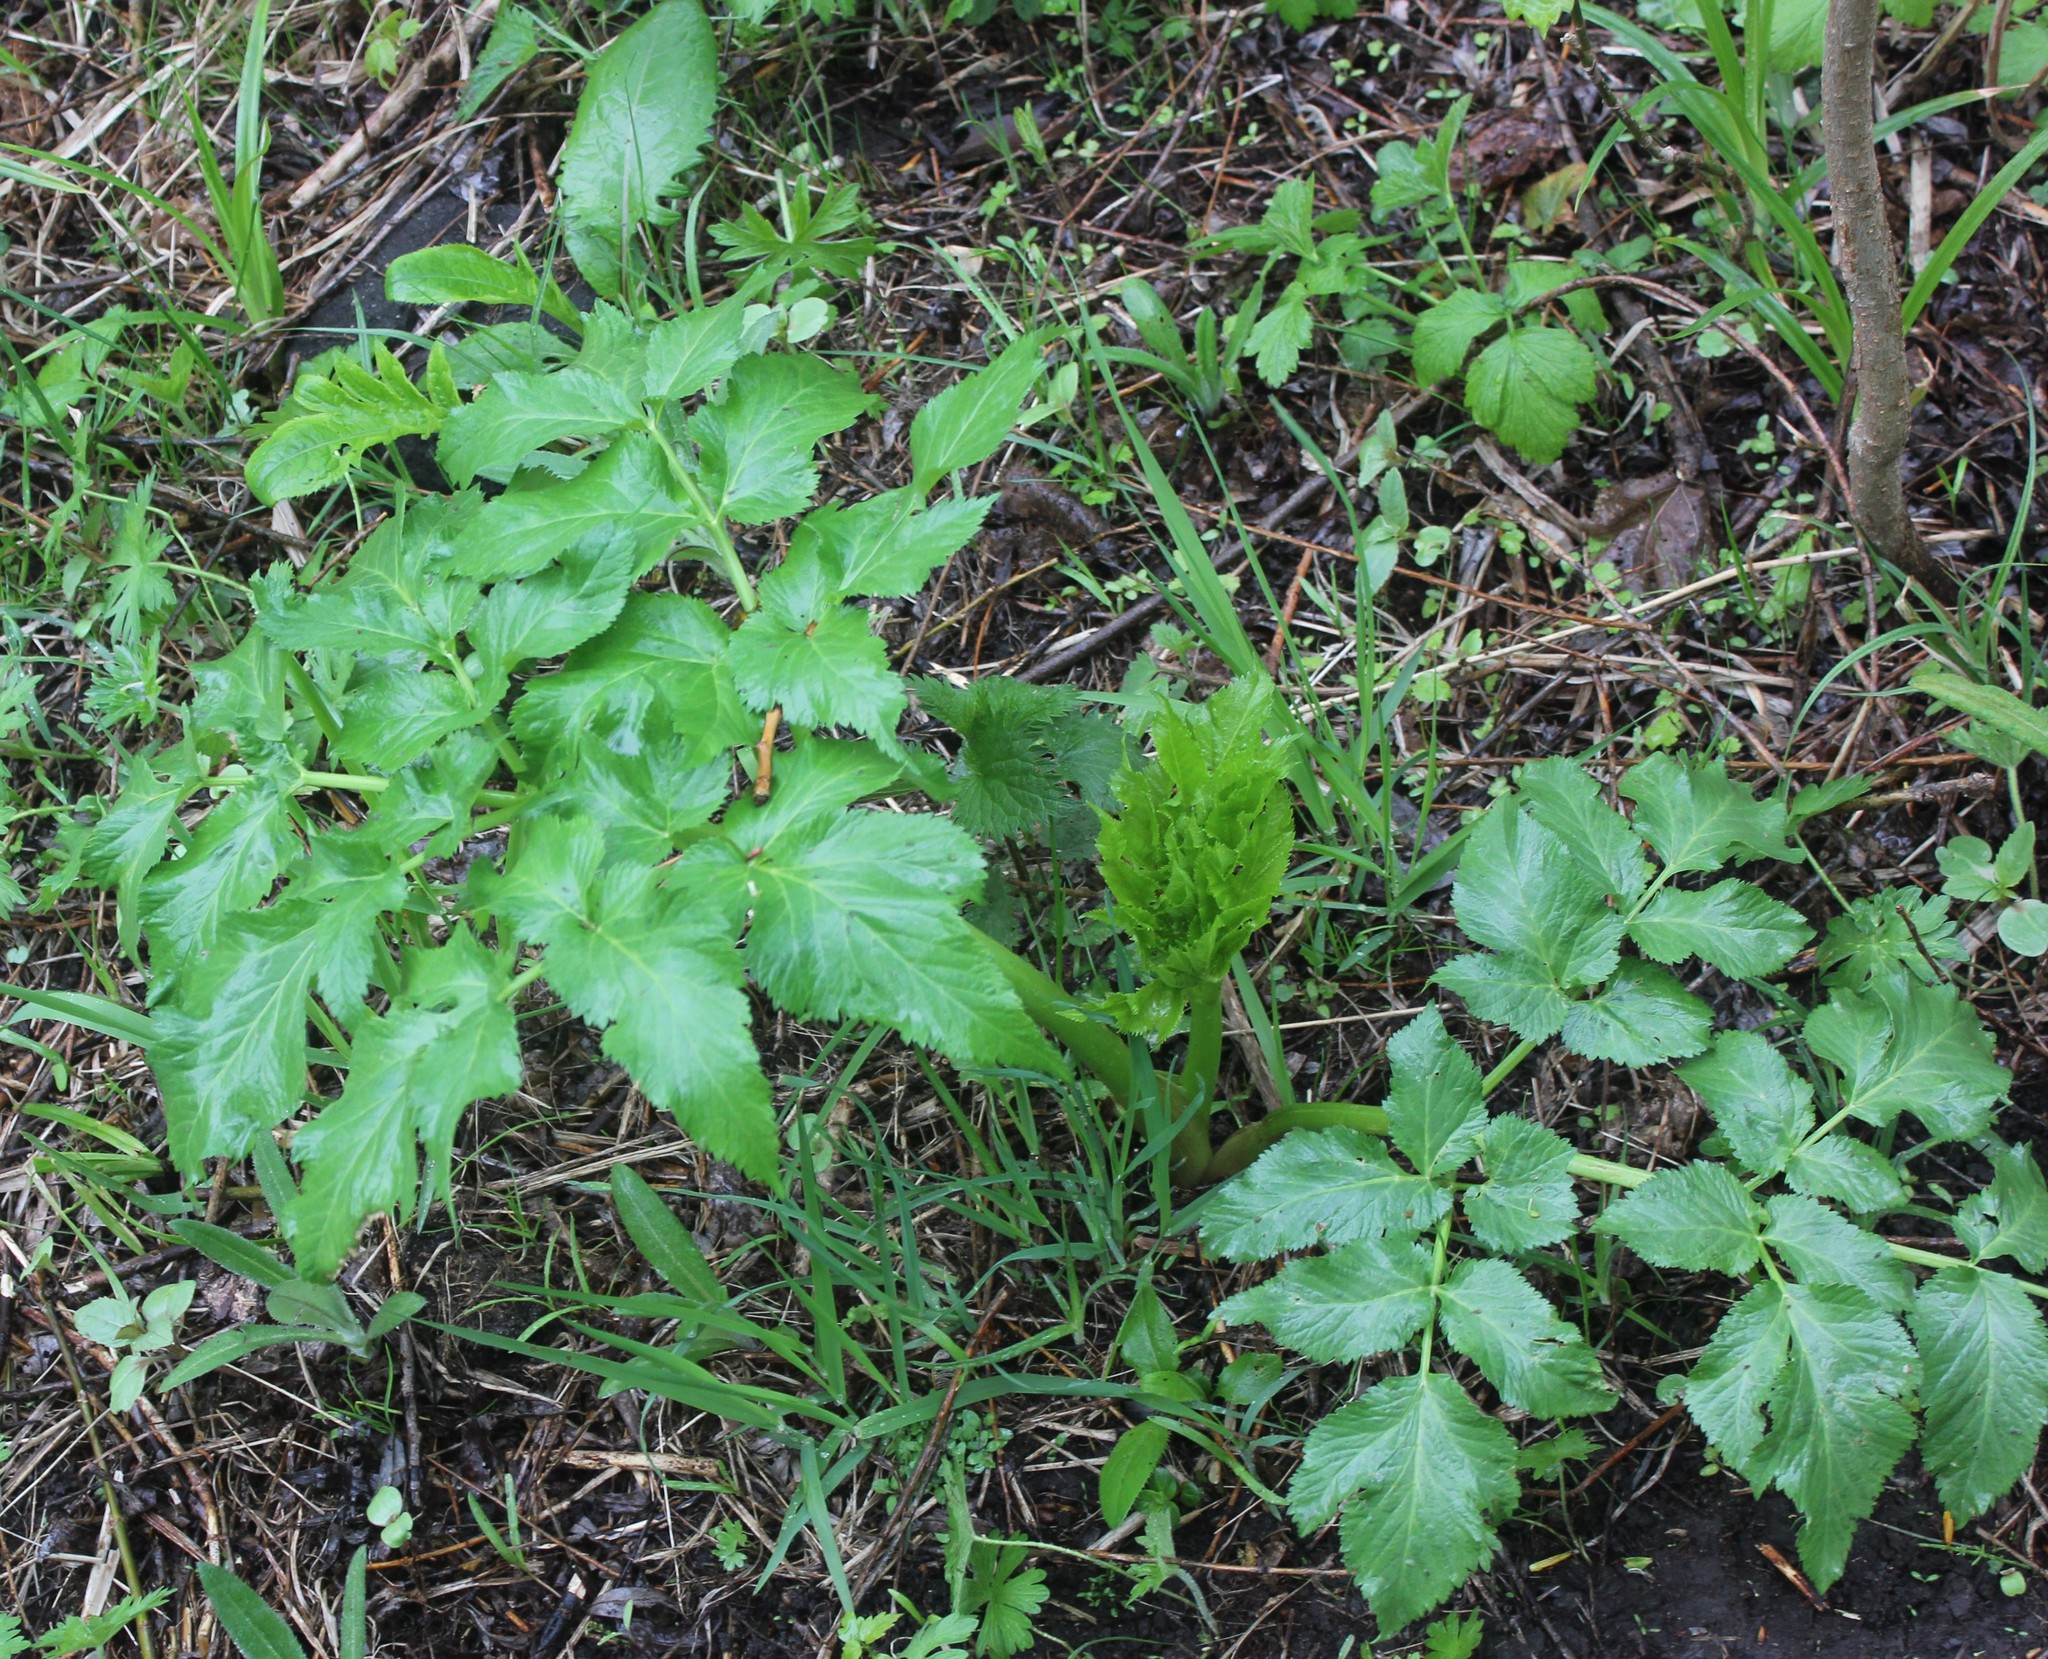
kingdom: Plantae
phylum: Tracheophyta
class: Magnoliopsida
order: Apiales
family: Apiaceae
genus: Angelica
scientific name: Angelica archangelica
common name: Garden angelica
